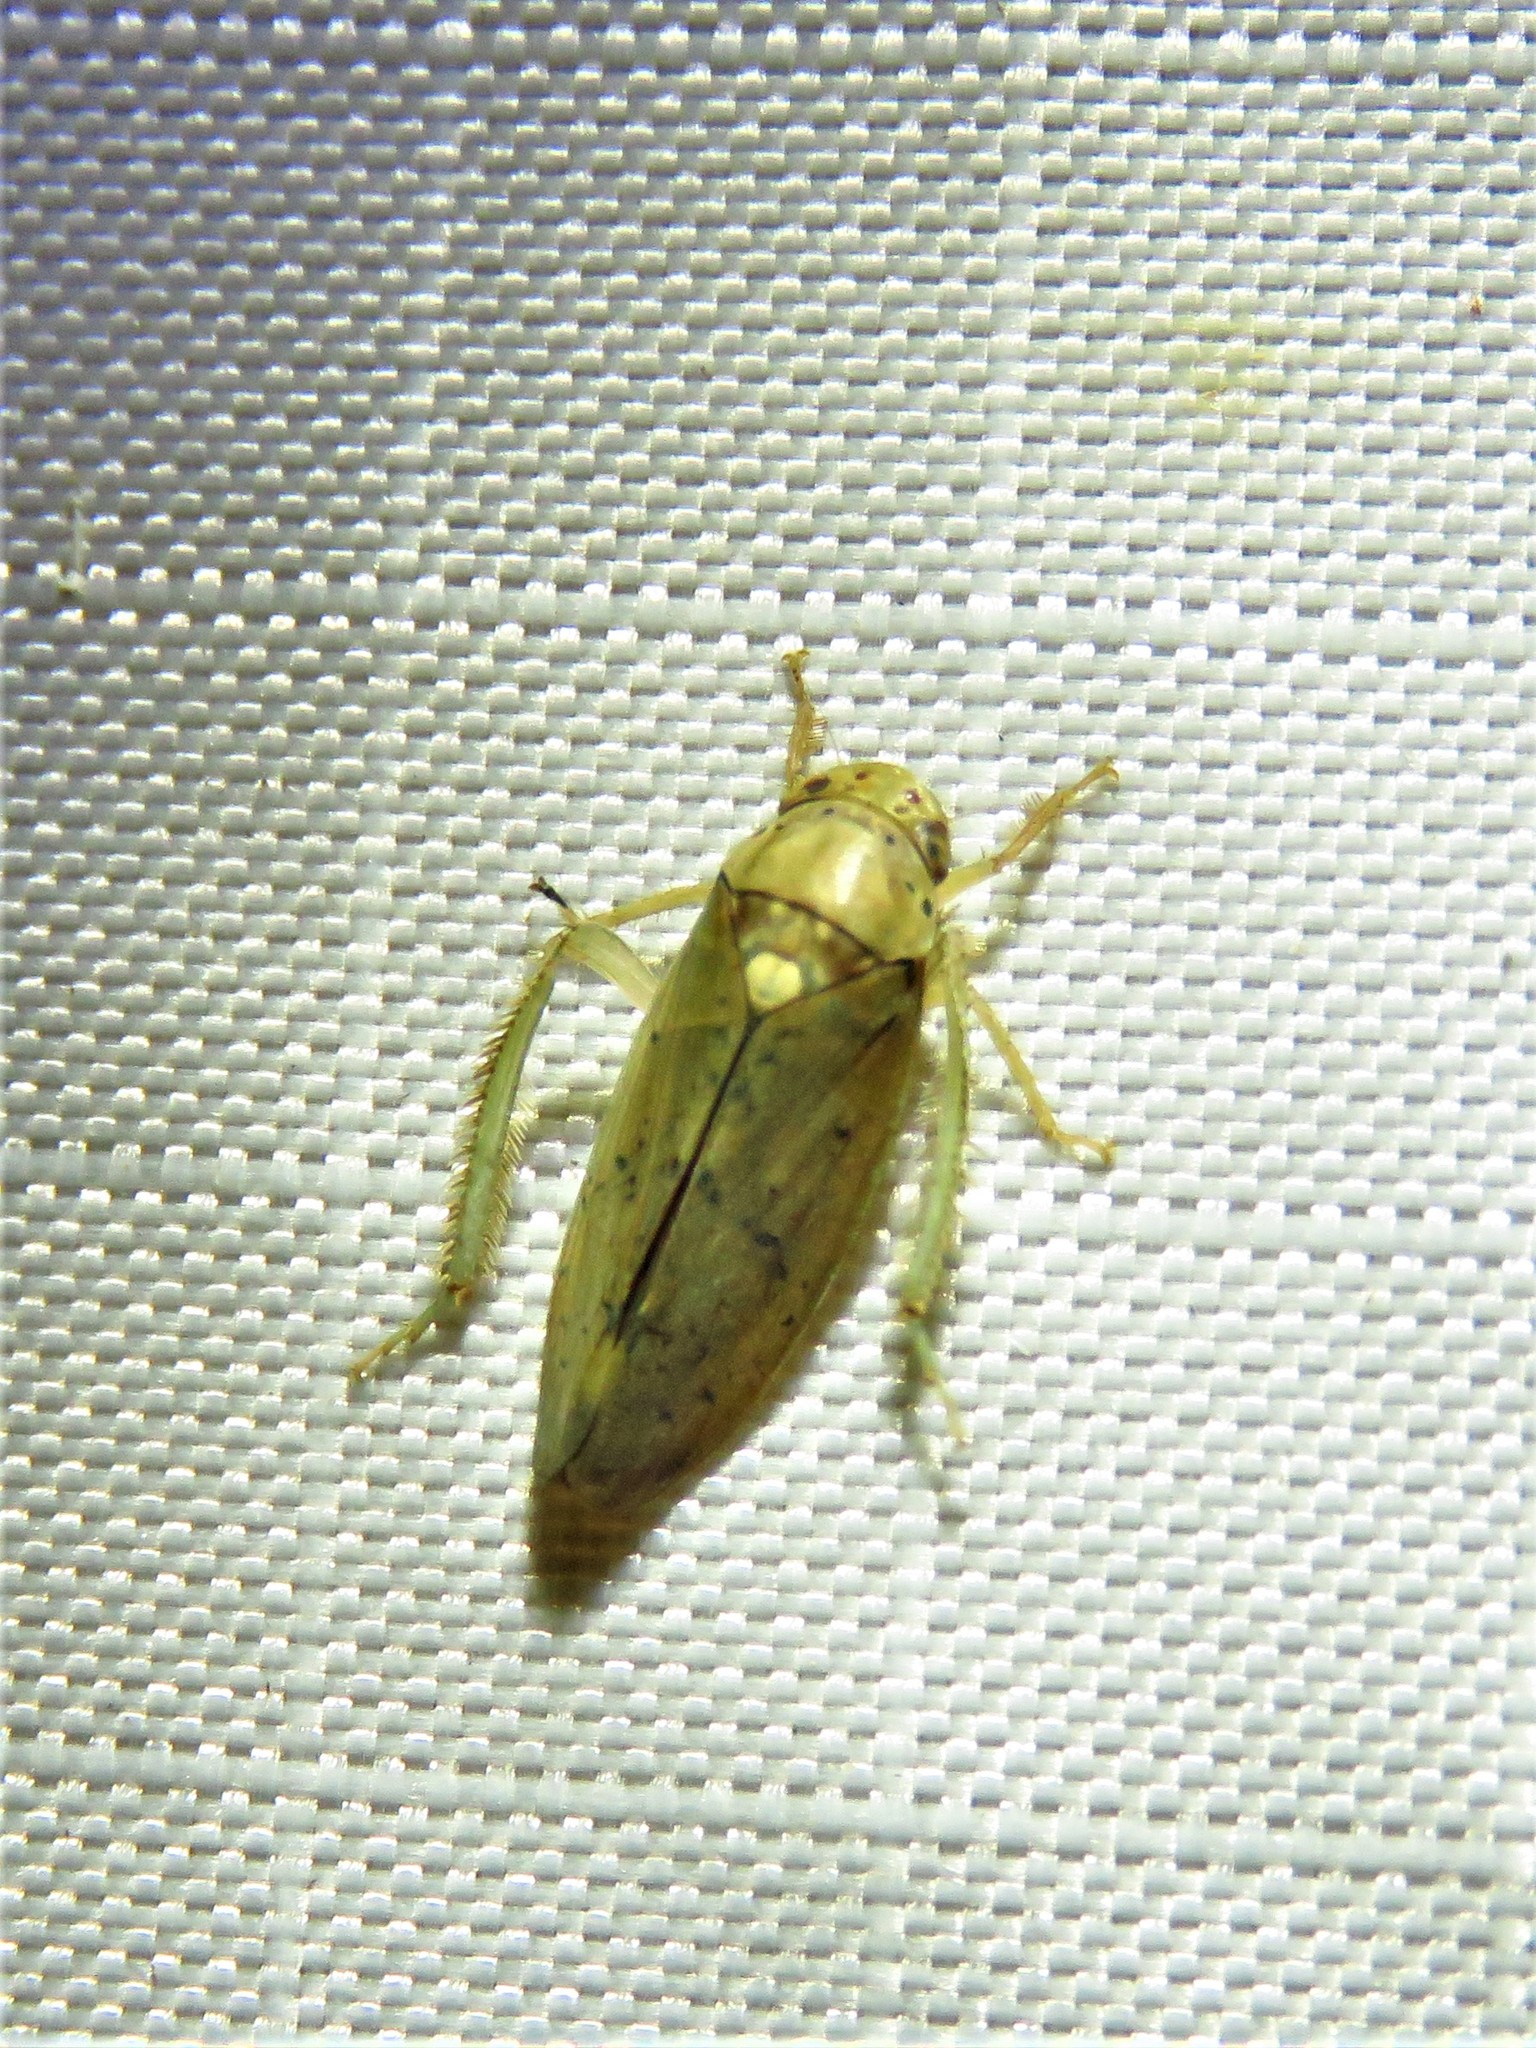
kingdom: Animalia
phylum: Arthropoda
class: Insecta
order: Hemiptera
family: Cicadellidae
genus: Ponana
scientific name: Ponana quadralaba
